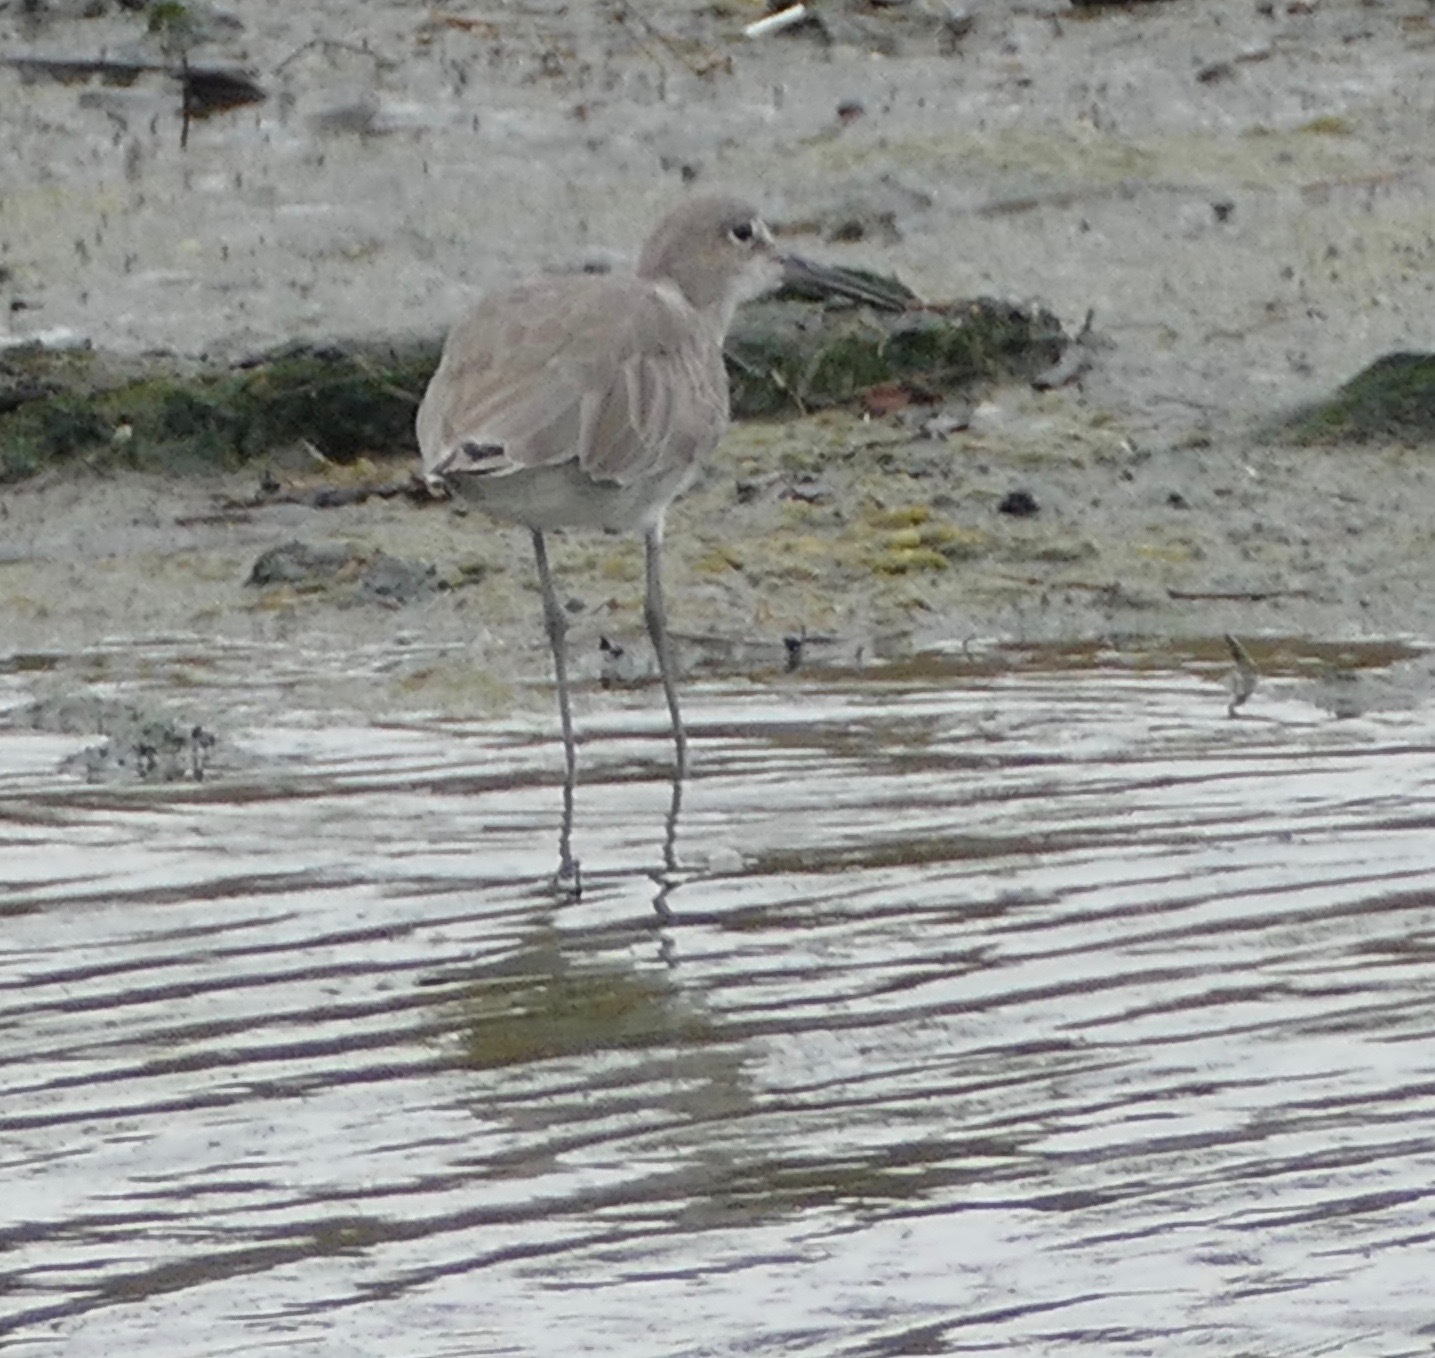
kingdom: Animalia
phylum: Chordata
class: Aves
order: Charadriiformes
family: Scolopacidae
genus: Tringa
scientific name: Tringa semipalmata
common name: Willet
